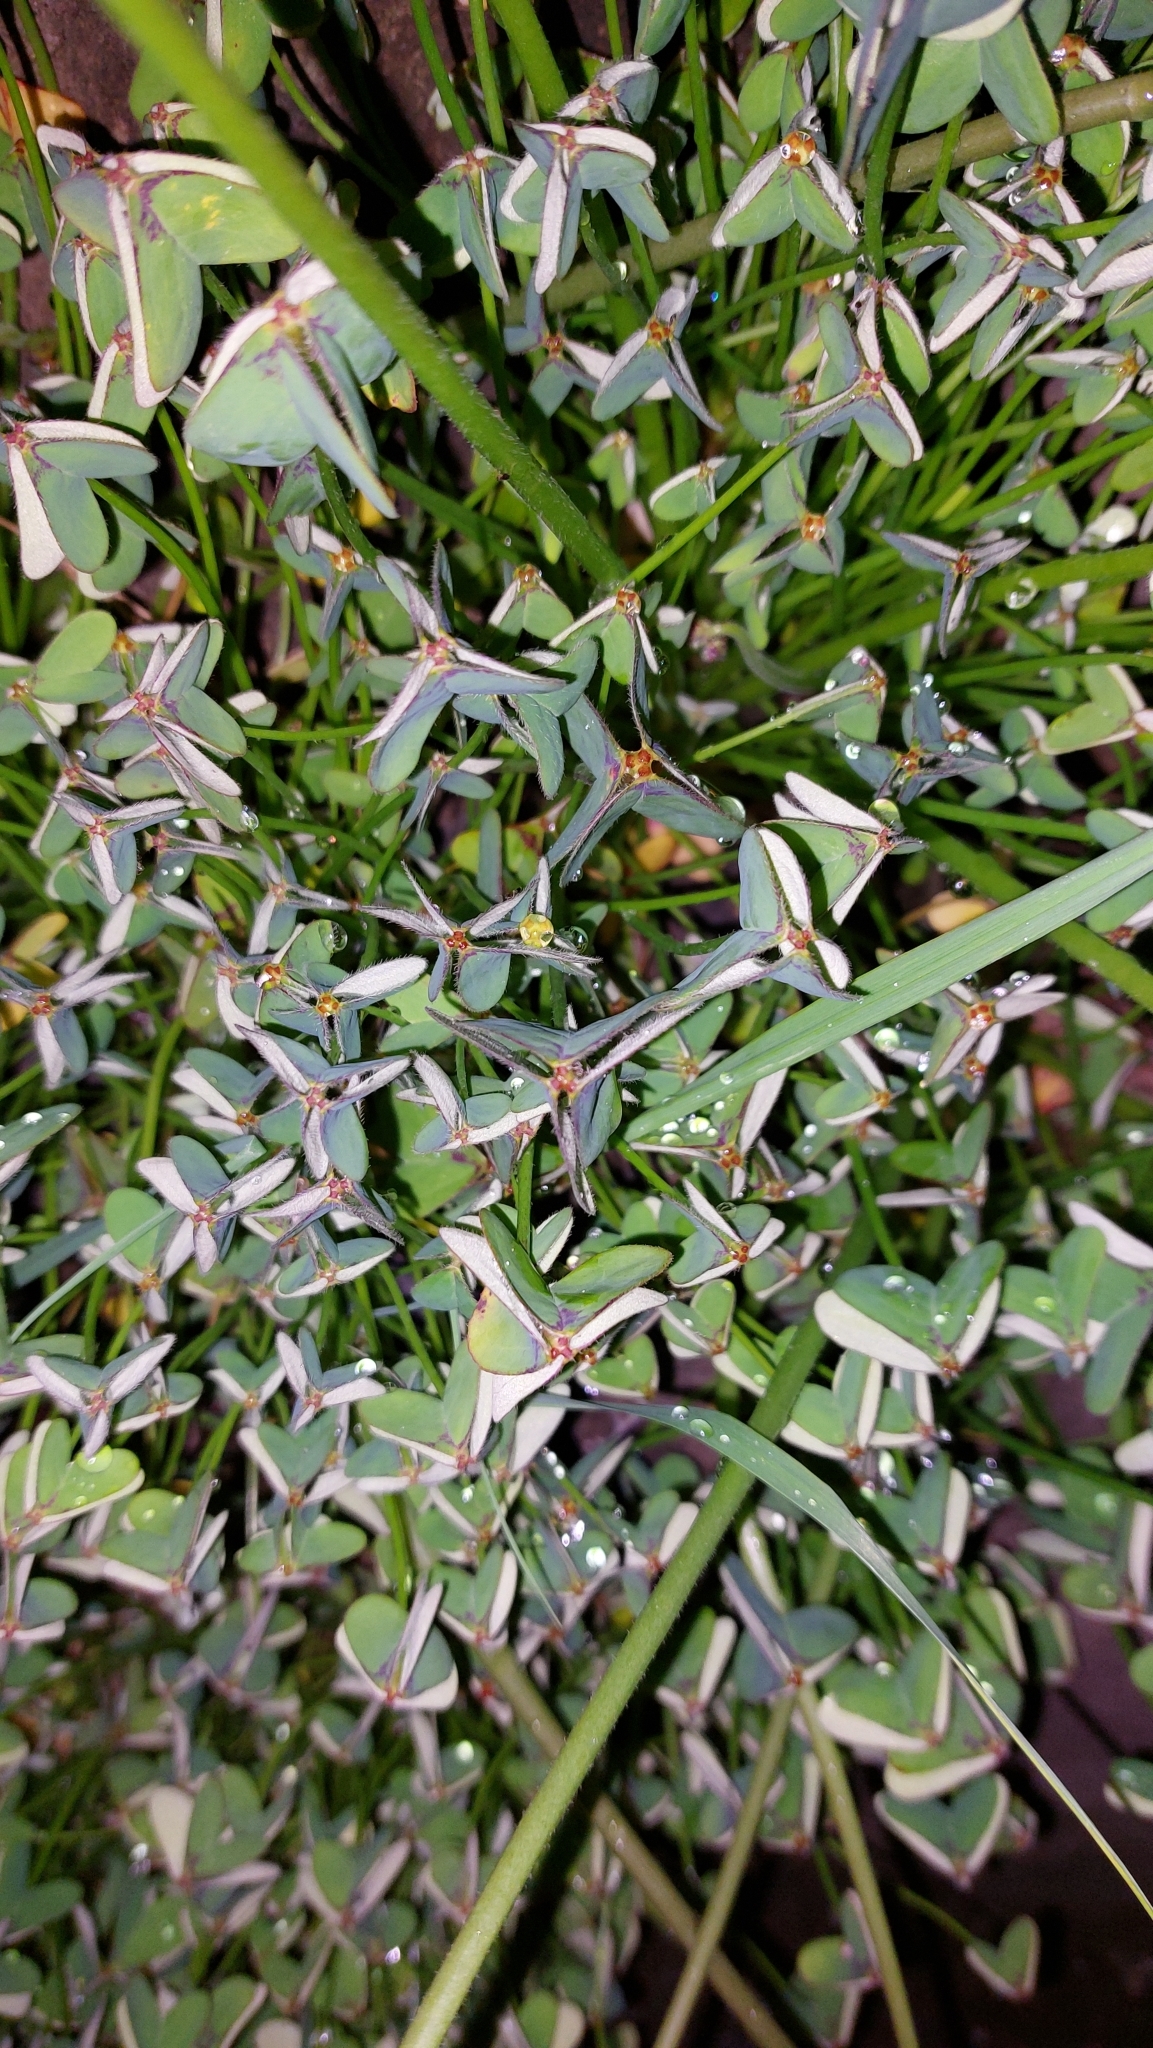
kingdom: Plantae
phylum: Tracheophyta
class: Magnoliopsida
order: Oxalidales
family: Oxalidaceae
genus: Oxalis
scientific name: Oxalis pes-caprae
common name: Bermuda-buttercup
